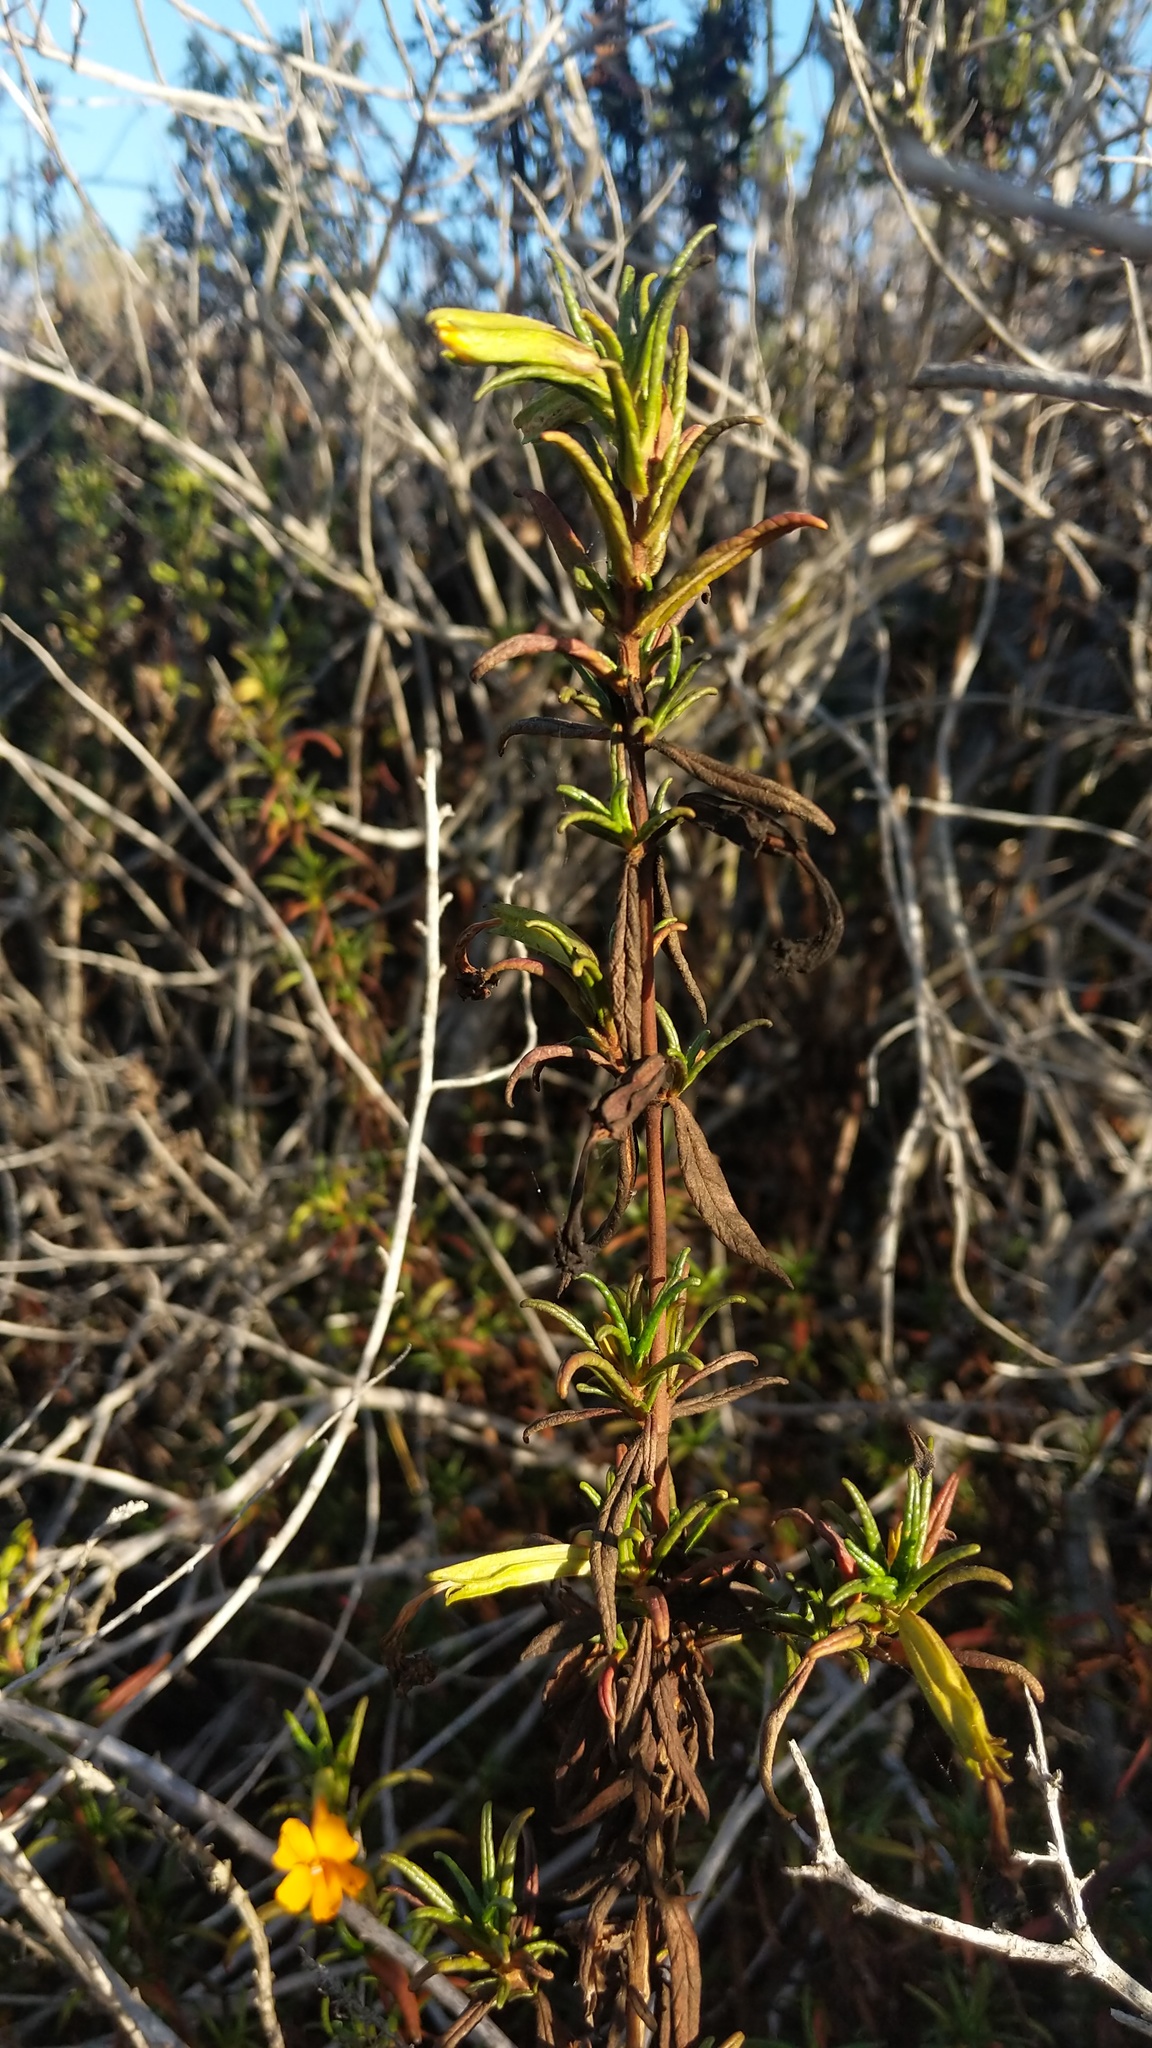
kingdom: Plantae
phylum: Tracheophyta
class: Magnoliopsida
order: Lamiales
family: Phrymaceae
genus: Diplacus
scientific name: Diplacus aurantiacus
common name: Bush monkey-flower
